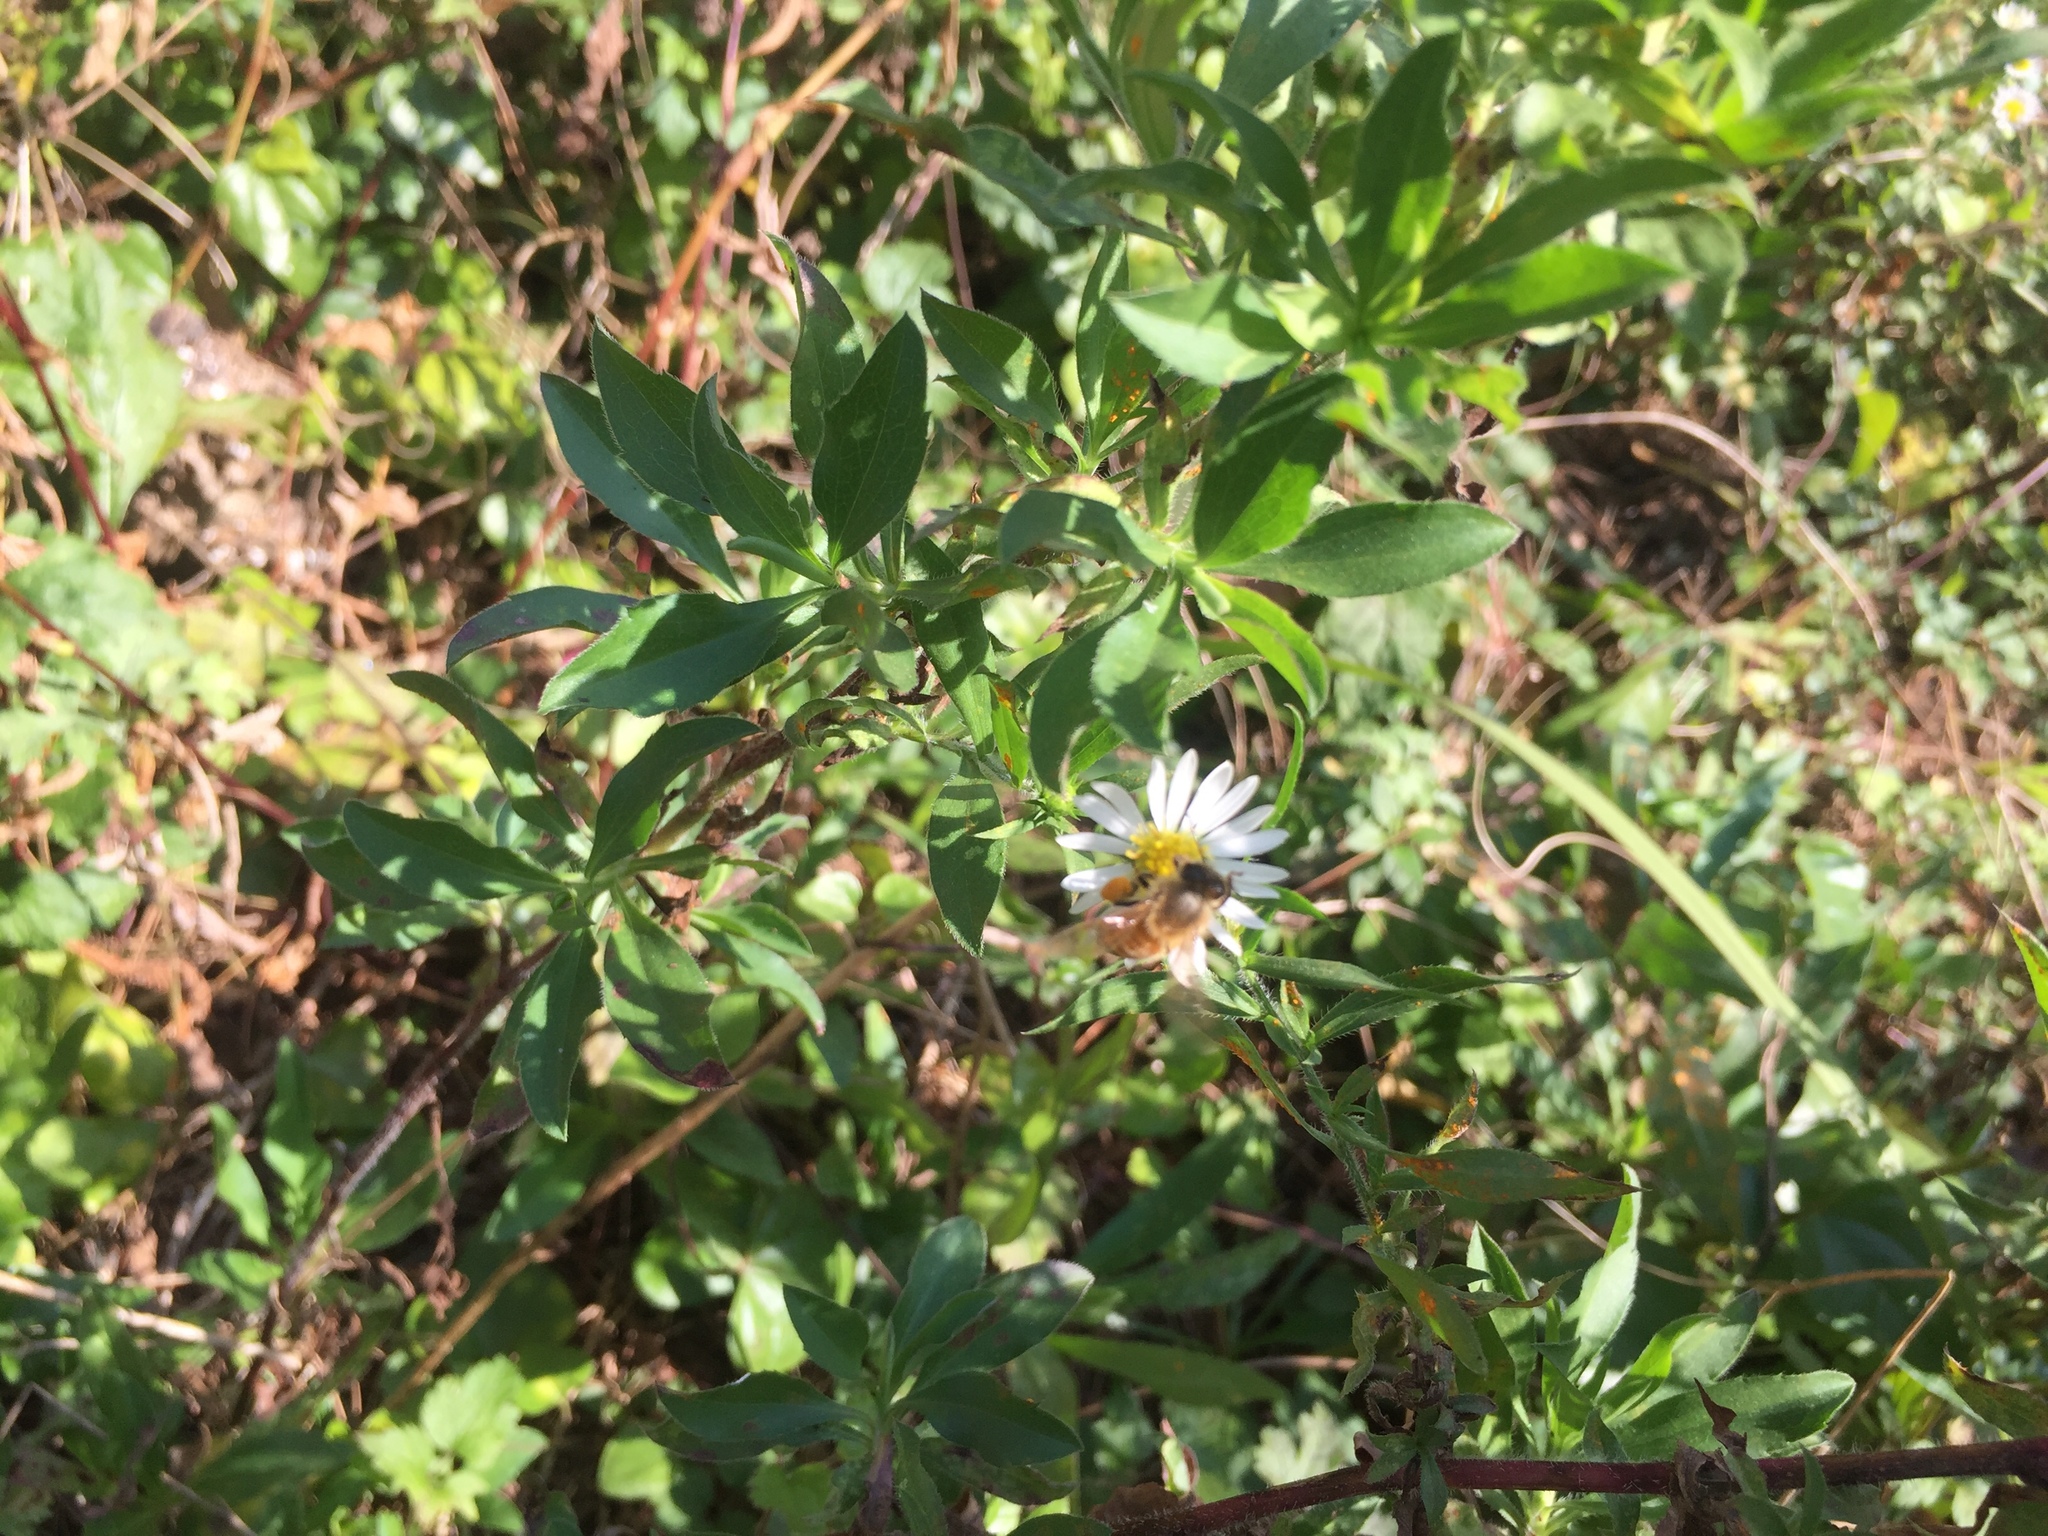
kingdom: Animalia
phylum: Arthropoda
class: Insecta
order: Hymenoptera
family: Apidae
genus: Apis
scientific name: Apis mellifera
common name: Honey bee
